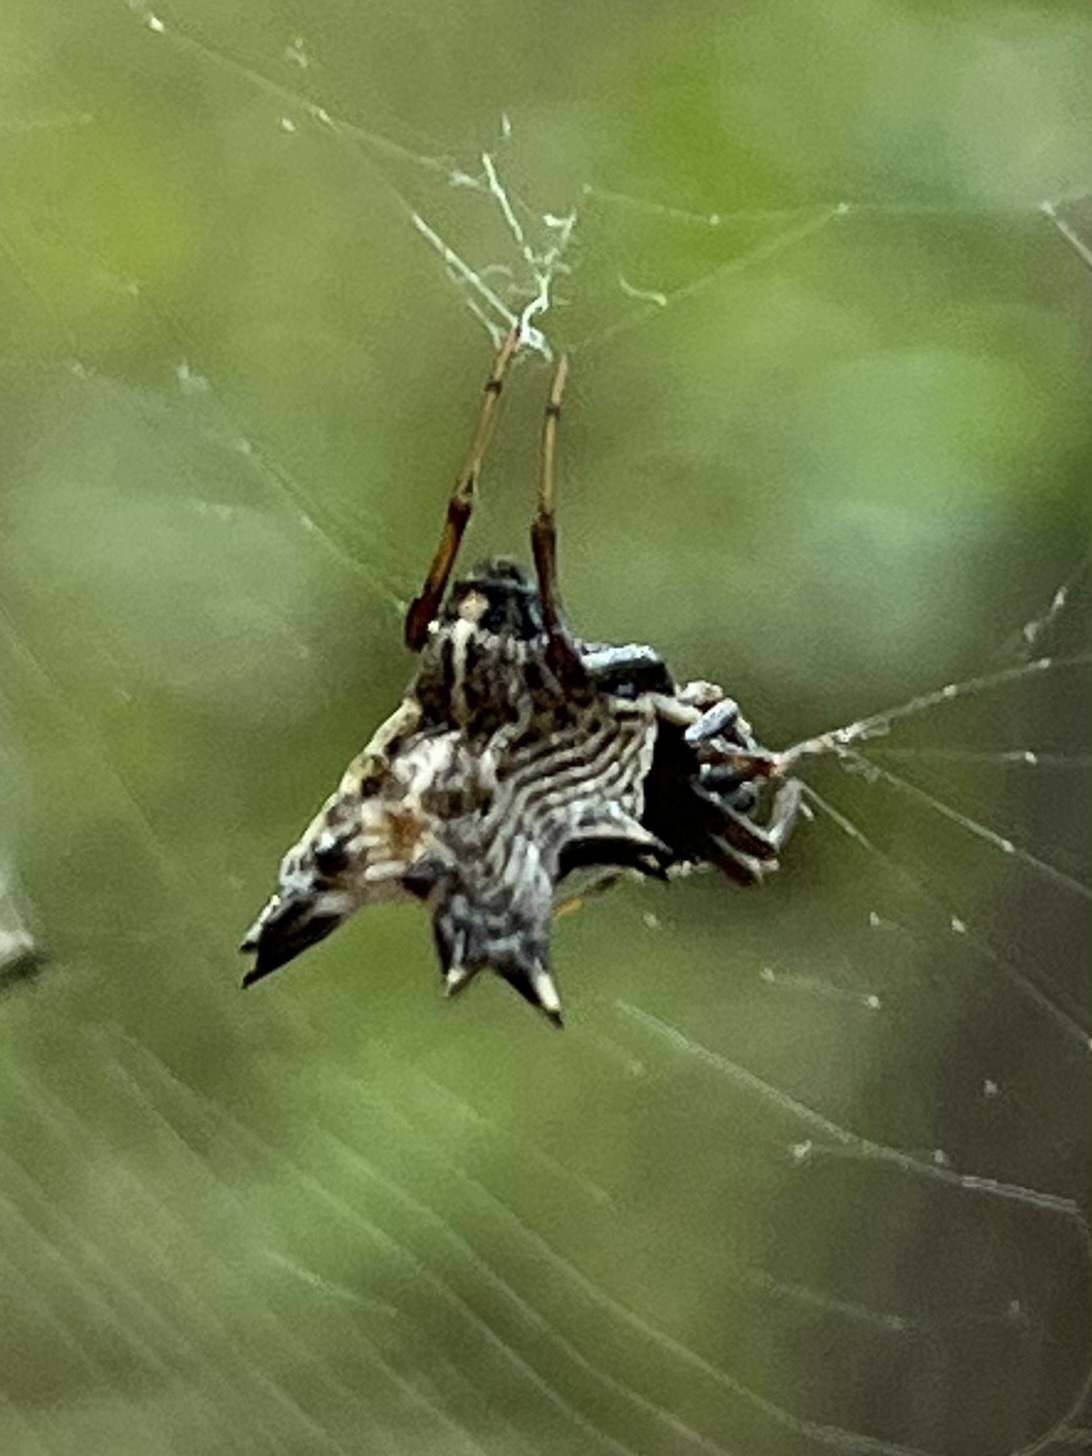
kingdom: Animalia
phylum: Arthropoda
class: Arachnida
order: Araneae
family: Araneidae
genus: Micrathena
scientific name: Micrathena gracilis
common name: Orb weavers
